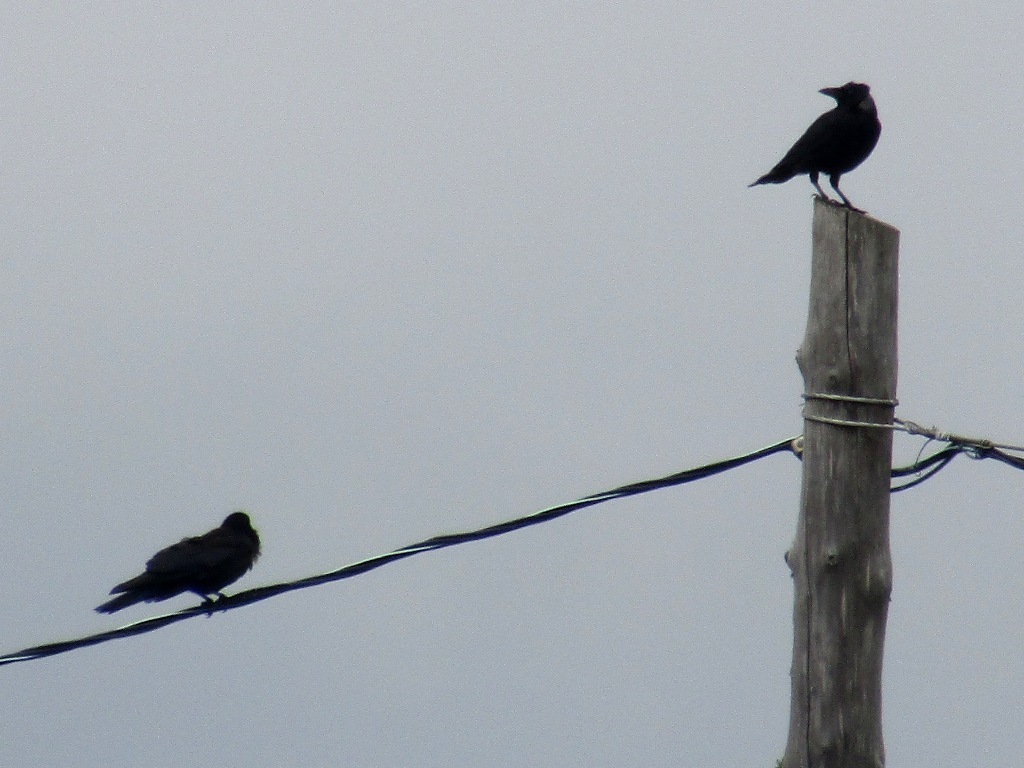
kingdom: Animalia
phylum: Chordata
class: Aves
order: Passeriformes
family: Corvidae
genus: Corvus
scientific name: Corvus corone
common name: Carrion crow
